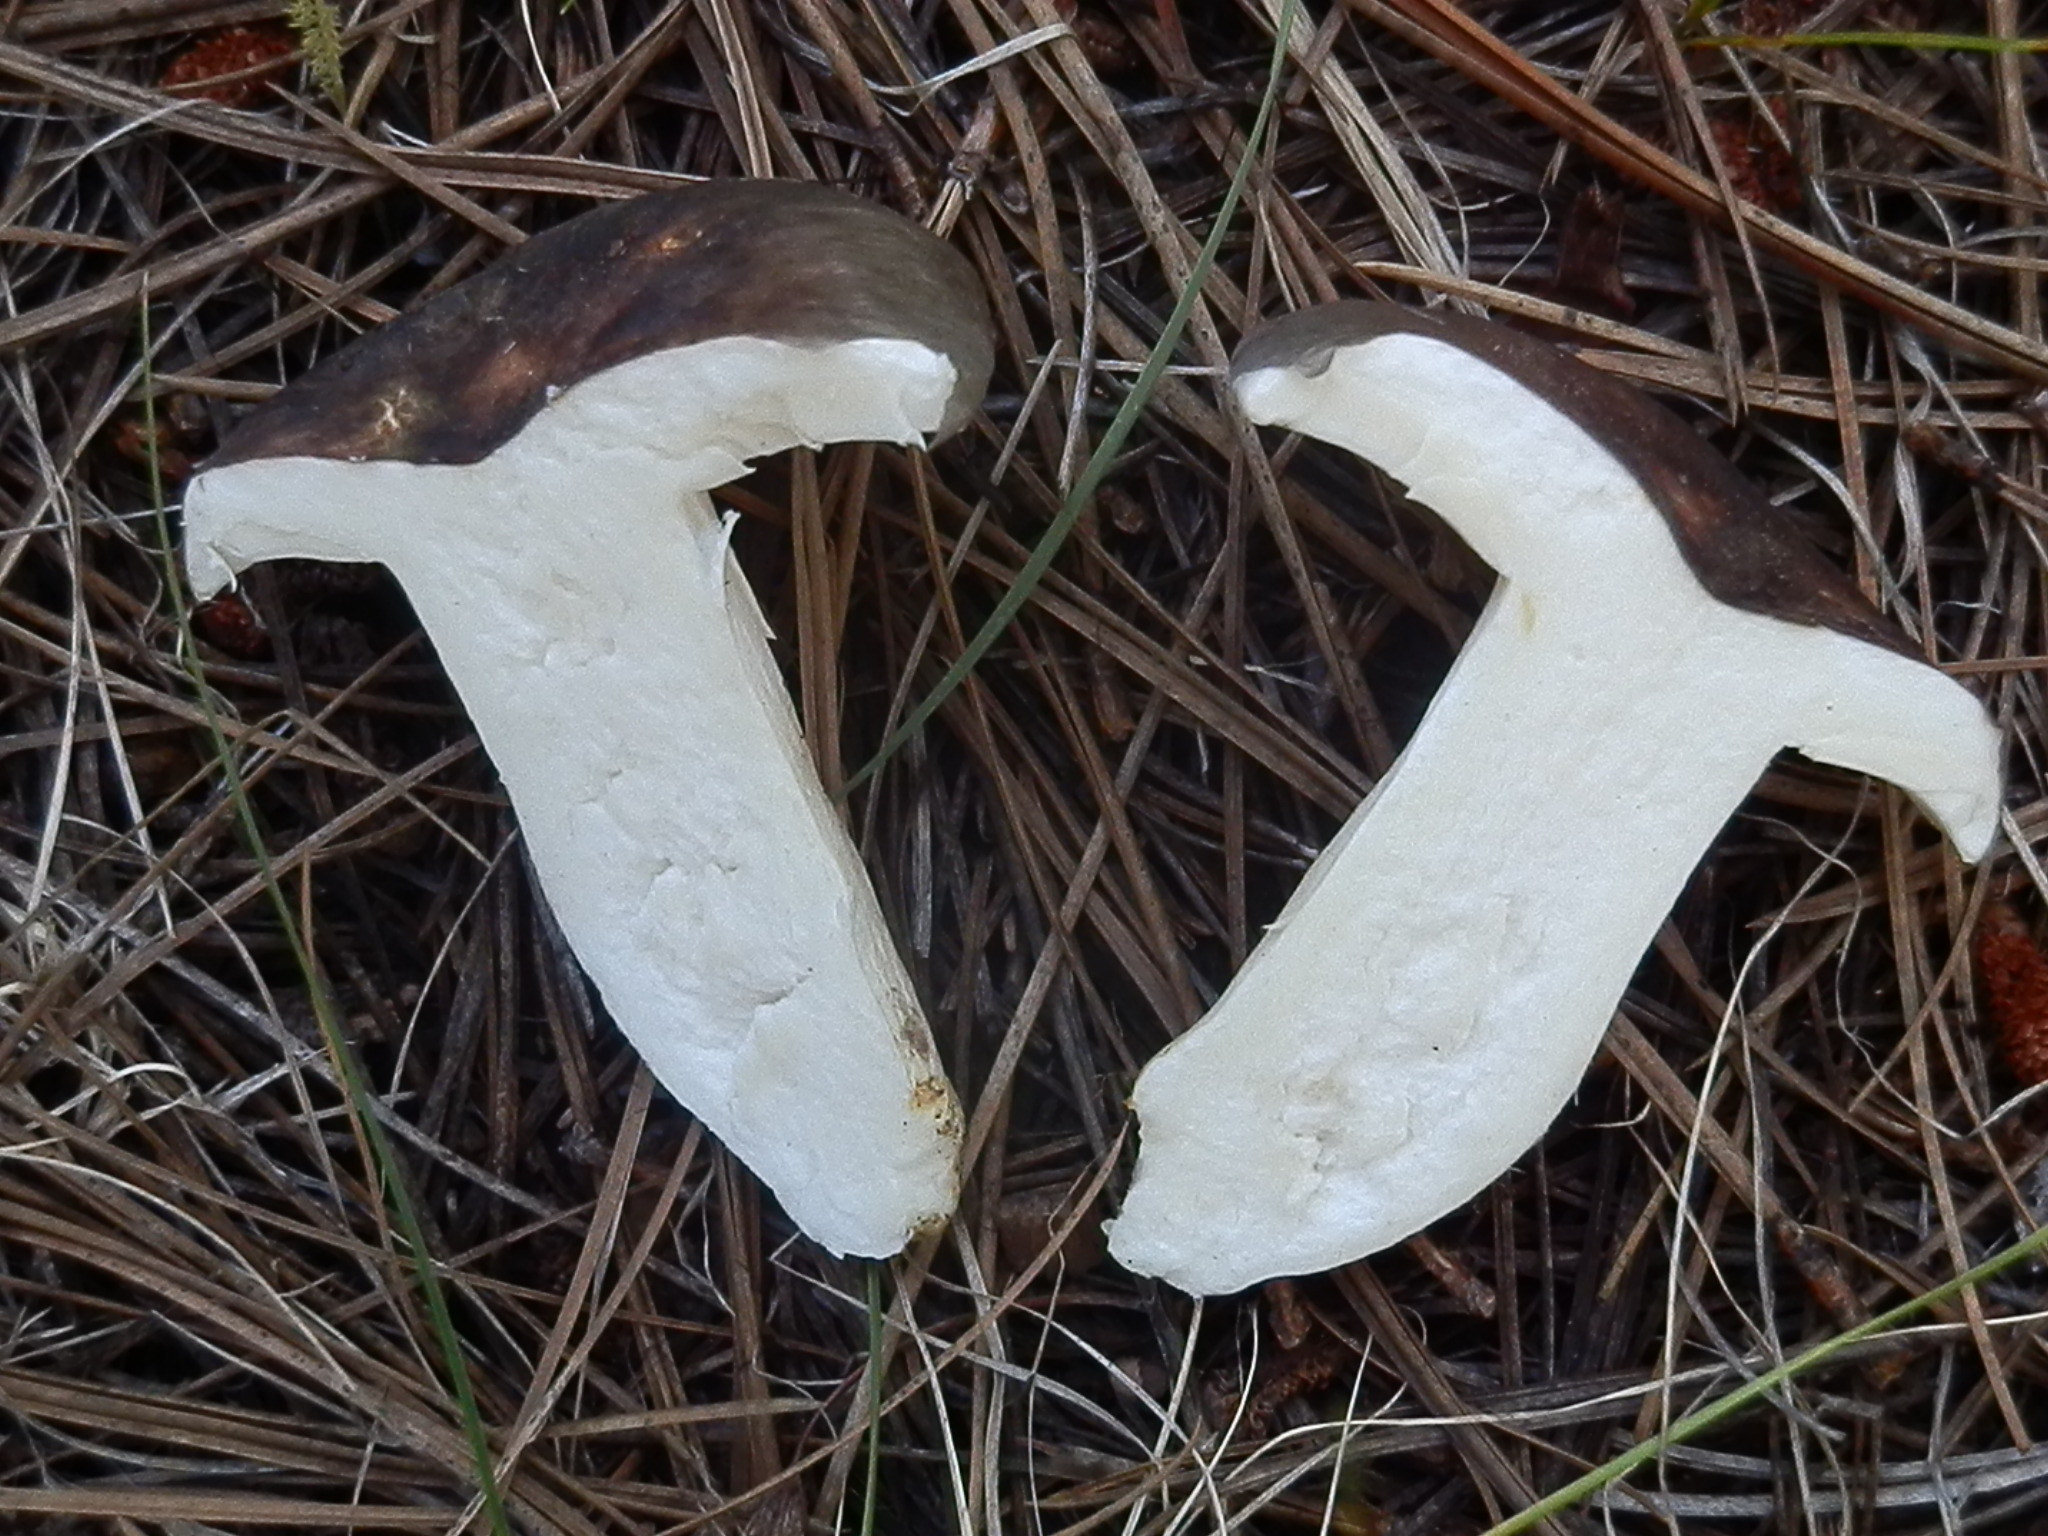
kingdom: Fungi
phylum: Basidiomycota
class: Agaricomycetes
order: Russulales
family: Russulaceae
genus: Russula
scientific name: Russula atroglauca
